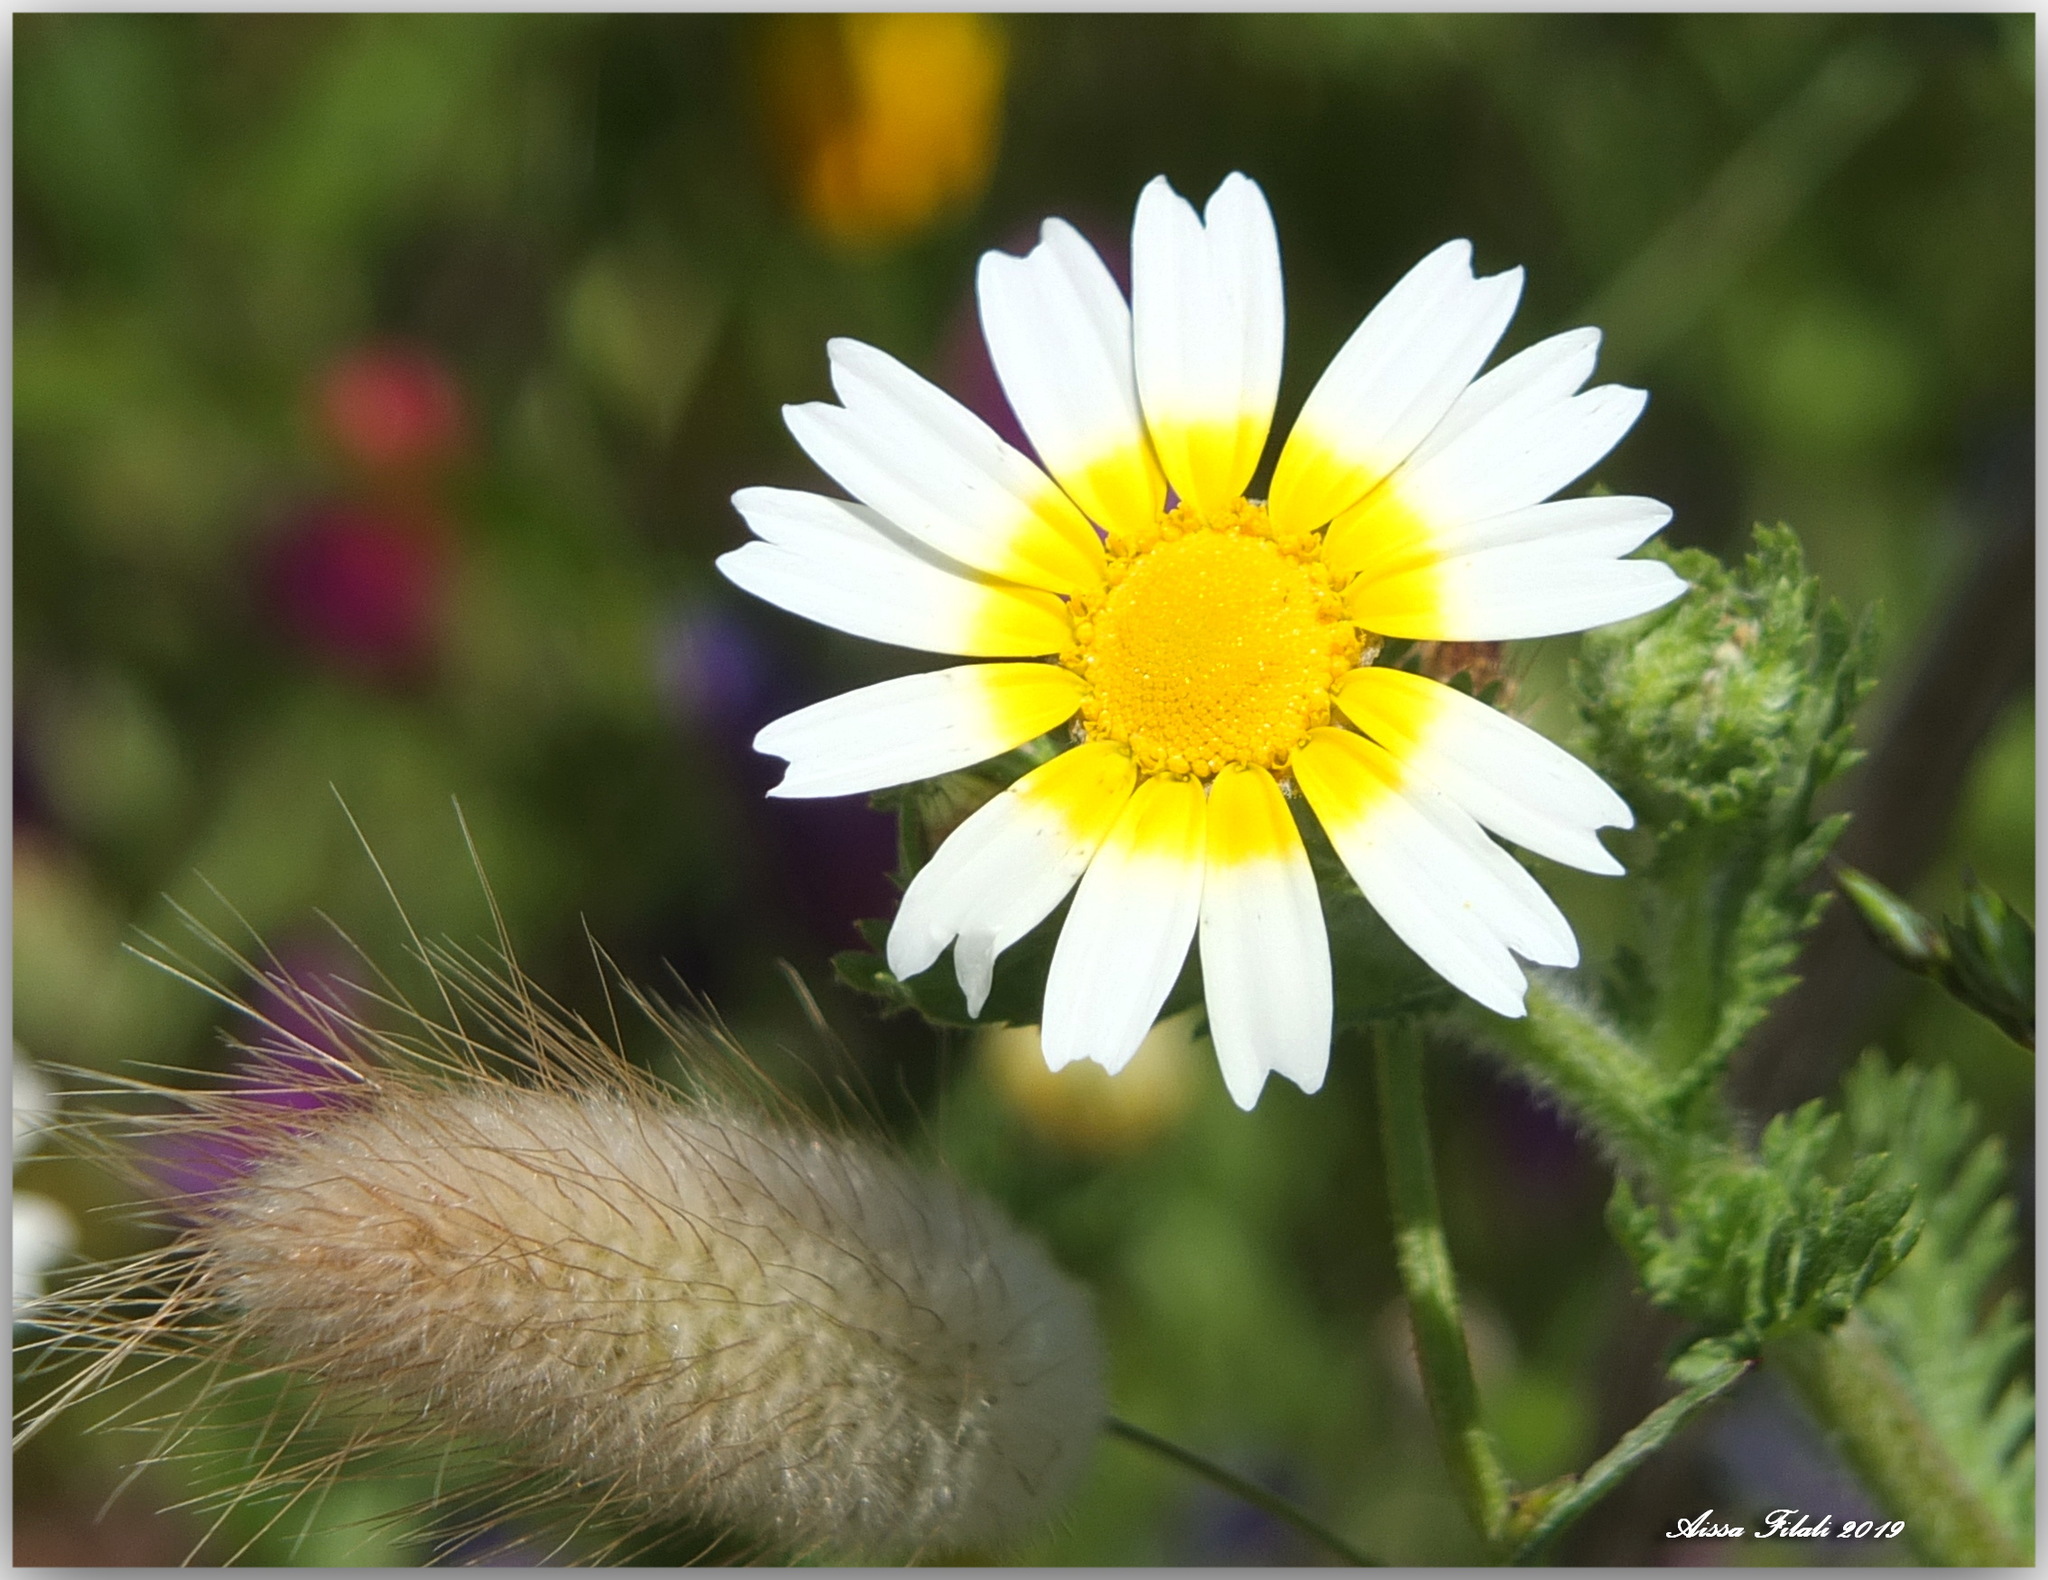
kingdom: Plantae
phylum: Tracheophyta
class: Magnoliopsida
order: Asterales
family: Asteraceae
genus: Glebionis
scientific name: Glebionis coronaria
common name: Crowndaisy
